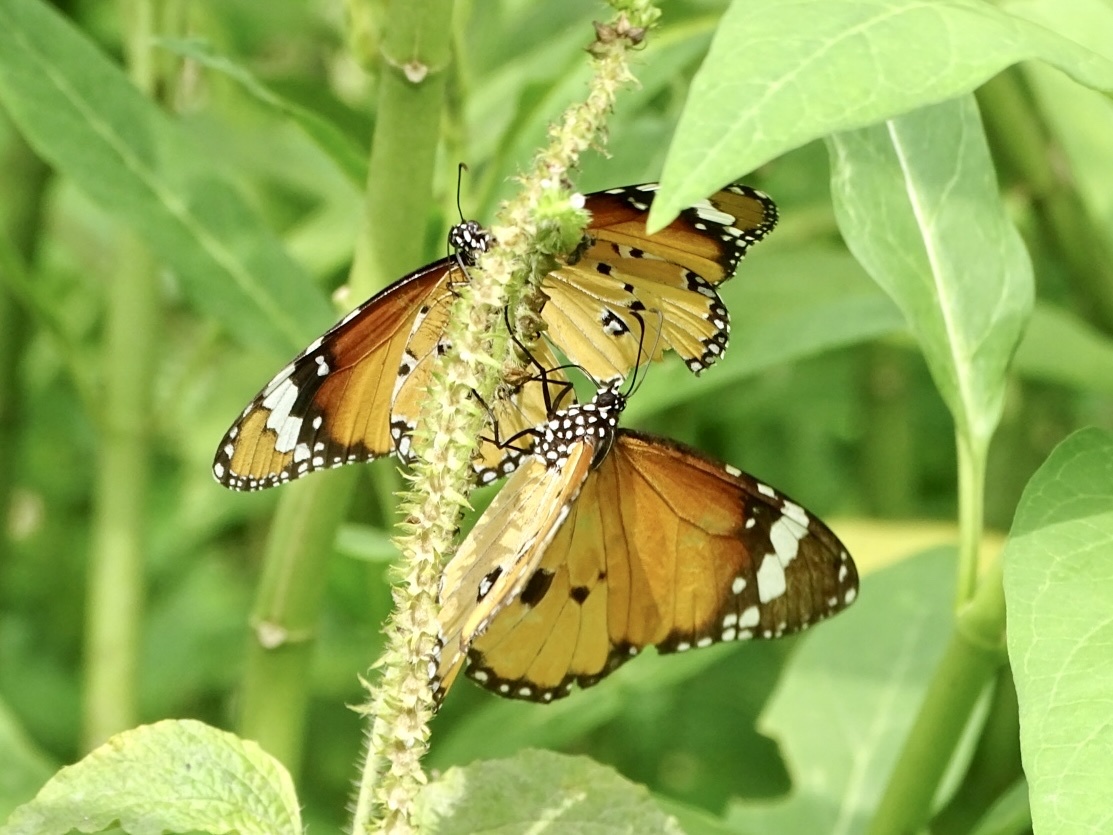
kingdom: Animalia
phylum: Arthropoda
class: Insecta
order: Lepidoptera
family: Nymphalidae
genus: Danaus
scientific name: Danaus chrysippus
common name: Plain tiger
